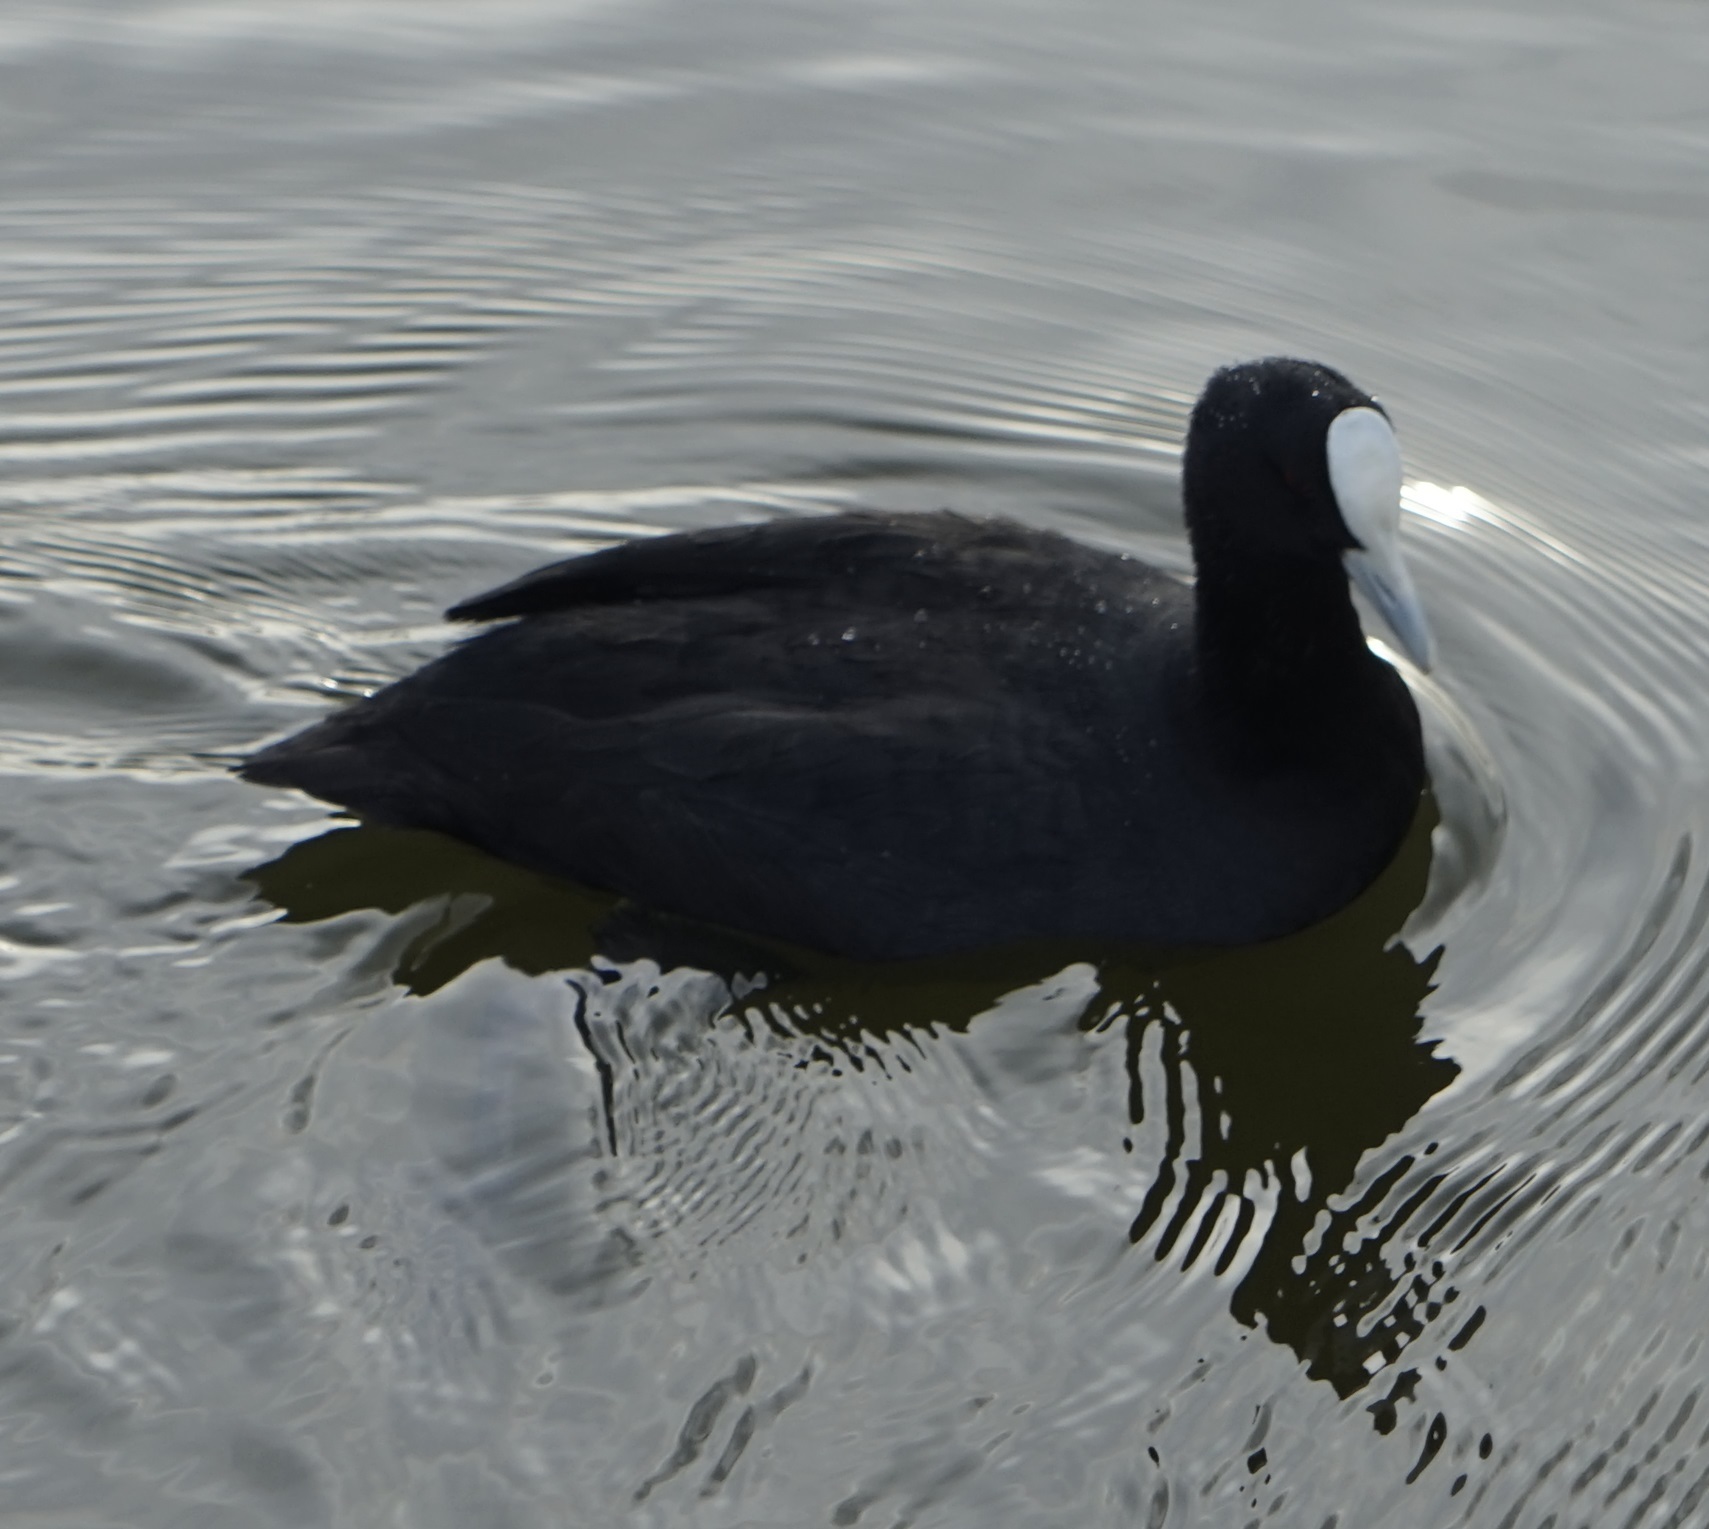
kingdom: Animalia
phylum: Chordata
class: Aves
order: Gruiformes
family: Rallidae
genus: Fulica
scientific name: Fulica atra
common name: Eurasian coot
